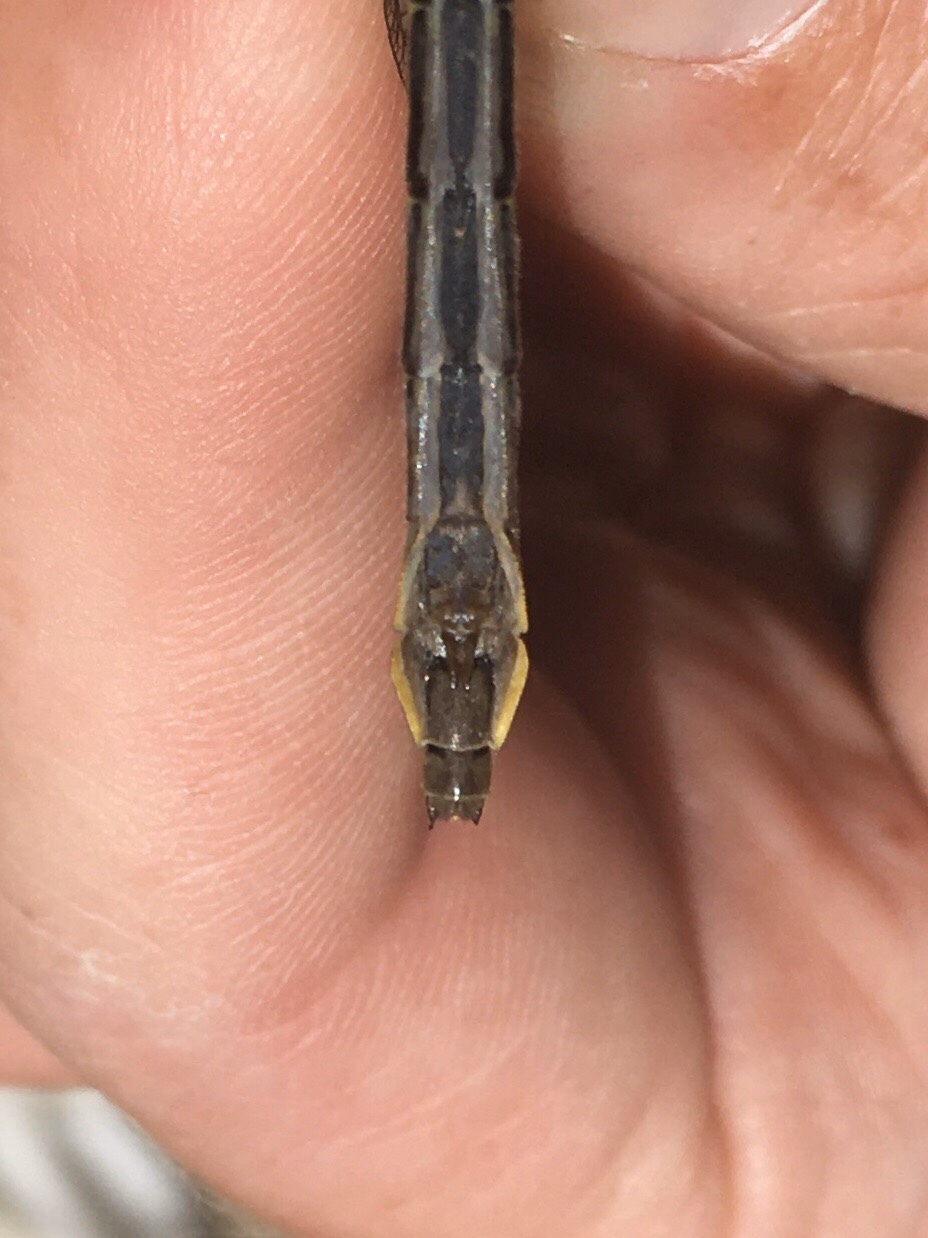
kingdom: Animalia
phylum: Arthropoda
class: Insecta
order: Odonata
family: Gomphidae
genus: Phanogomphus
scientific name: Phanogomphus borealis
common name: Beaverpond clubtail
